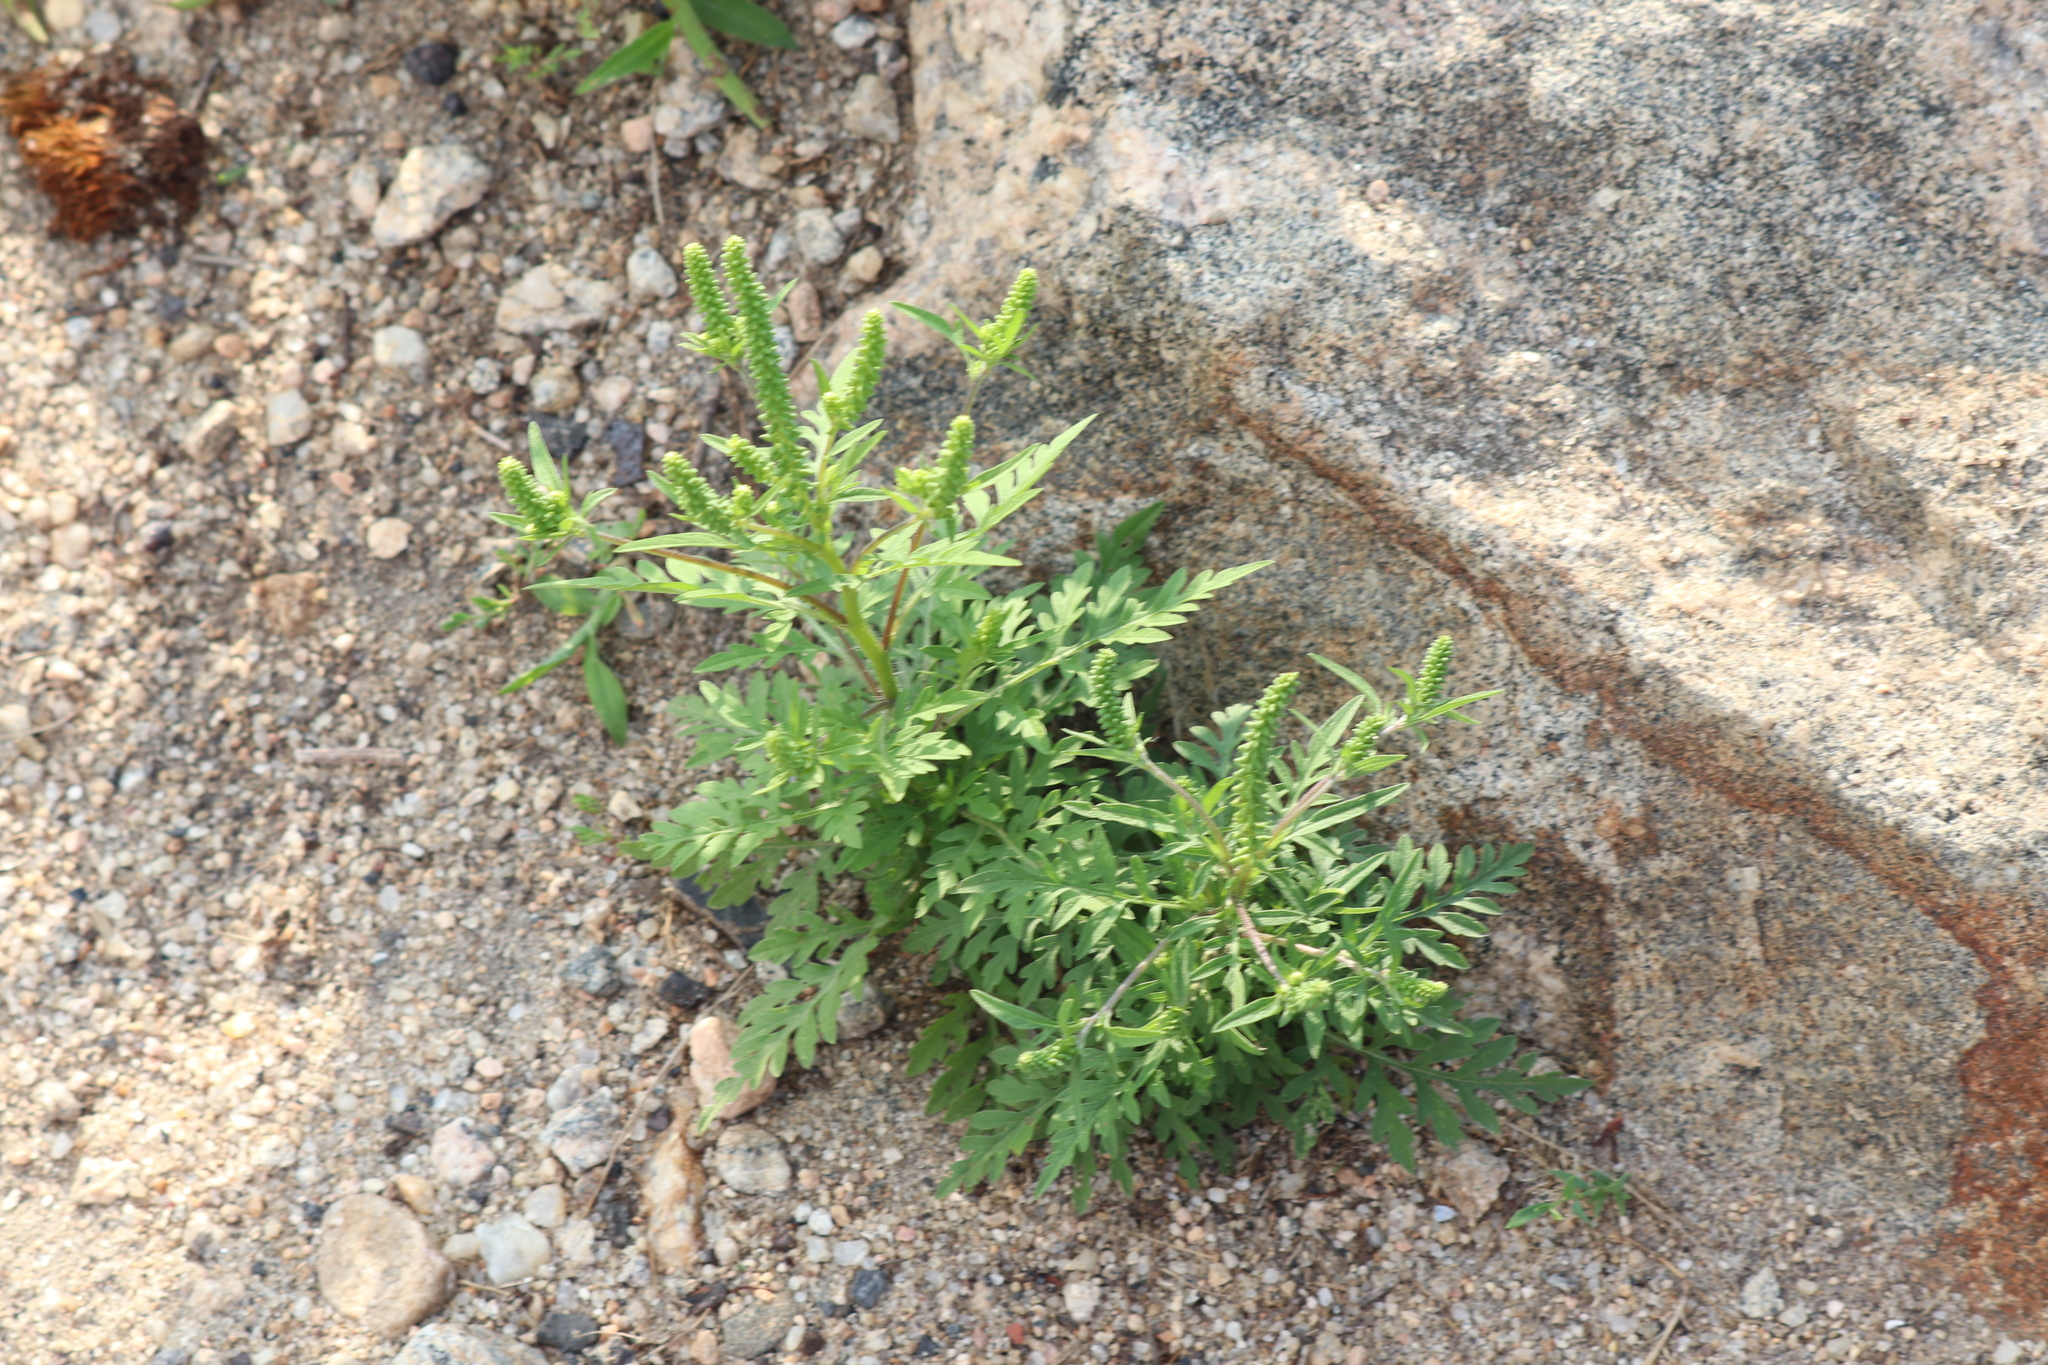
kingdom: Plantae
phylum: Tracheophyta
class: Magnoliopsida
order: Asterales
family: Asteraceae
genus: Ambrosia
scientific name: Ambrosia artemisiifolia
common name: Annual ragweed
